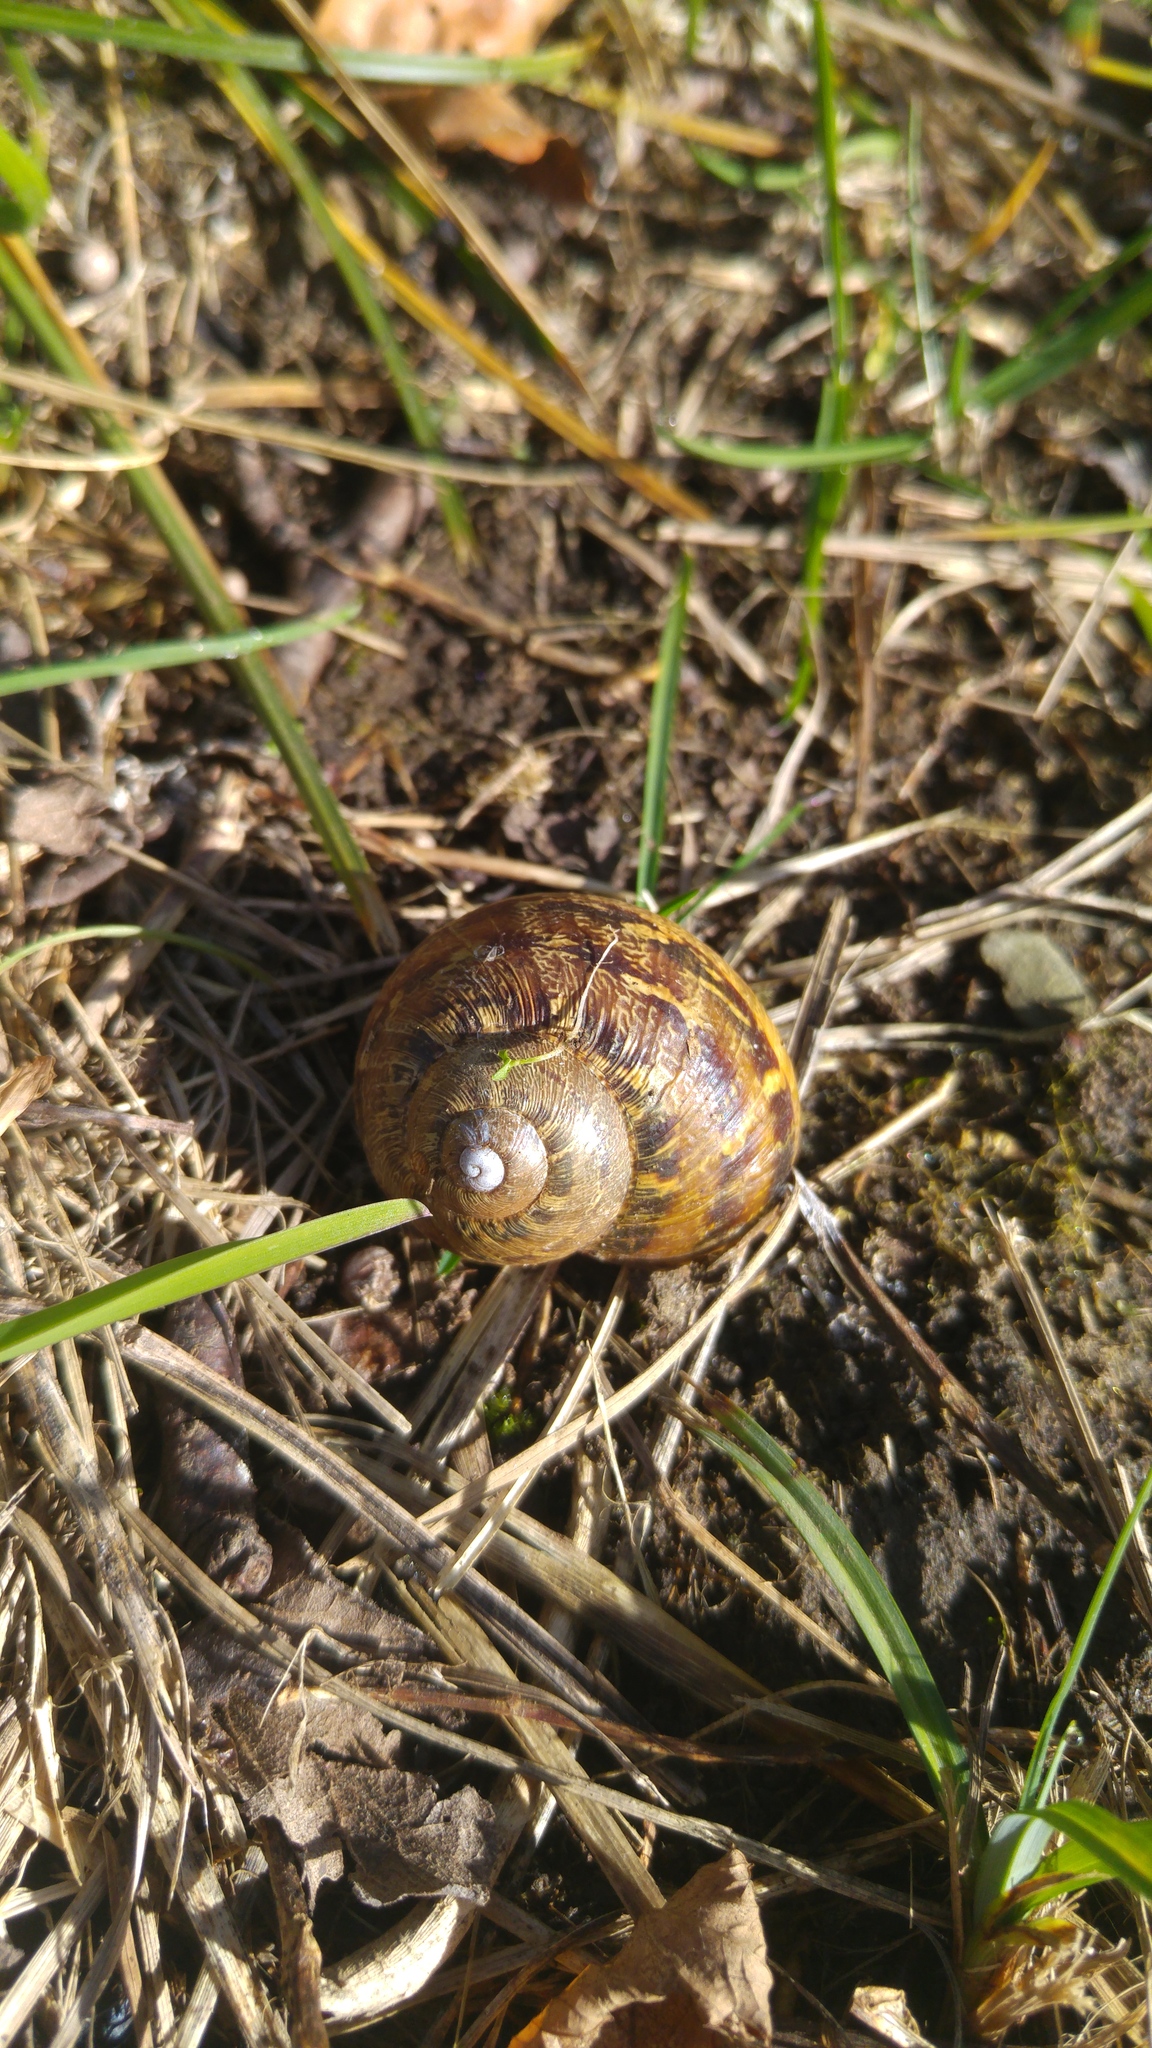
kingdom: Animalia
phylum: Mollusca
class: Gastropoda
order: Stylommatophora
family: Helicidae
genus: Cornu
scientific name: Cornu aspersum
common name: Brown garden snail
